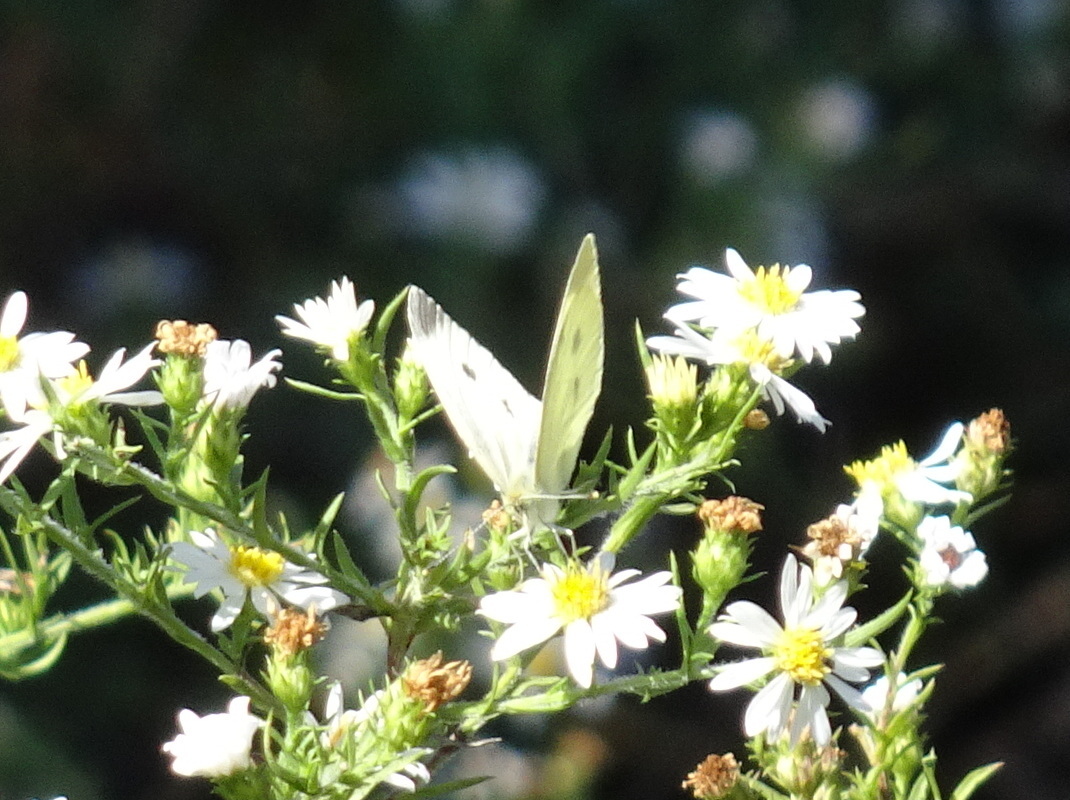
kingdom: Animalia
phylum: Arthropoda
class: Insecta
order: Lepidoptera
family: Pieridae
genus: Pieris
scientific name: Pieris rapae
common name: Small white
